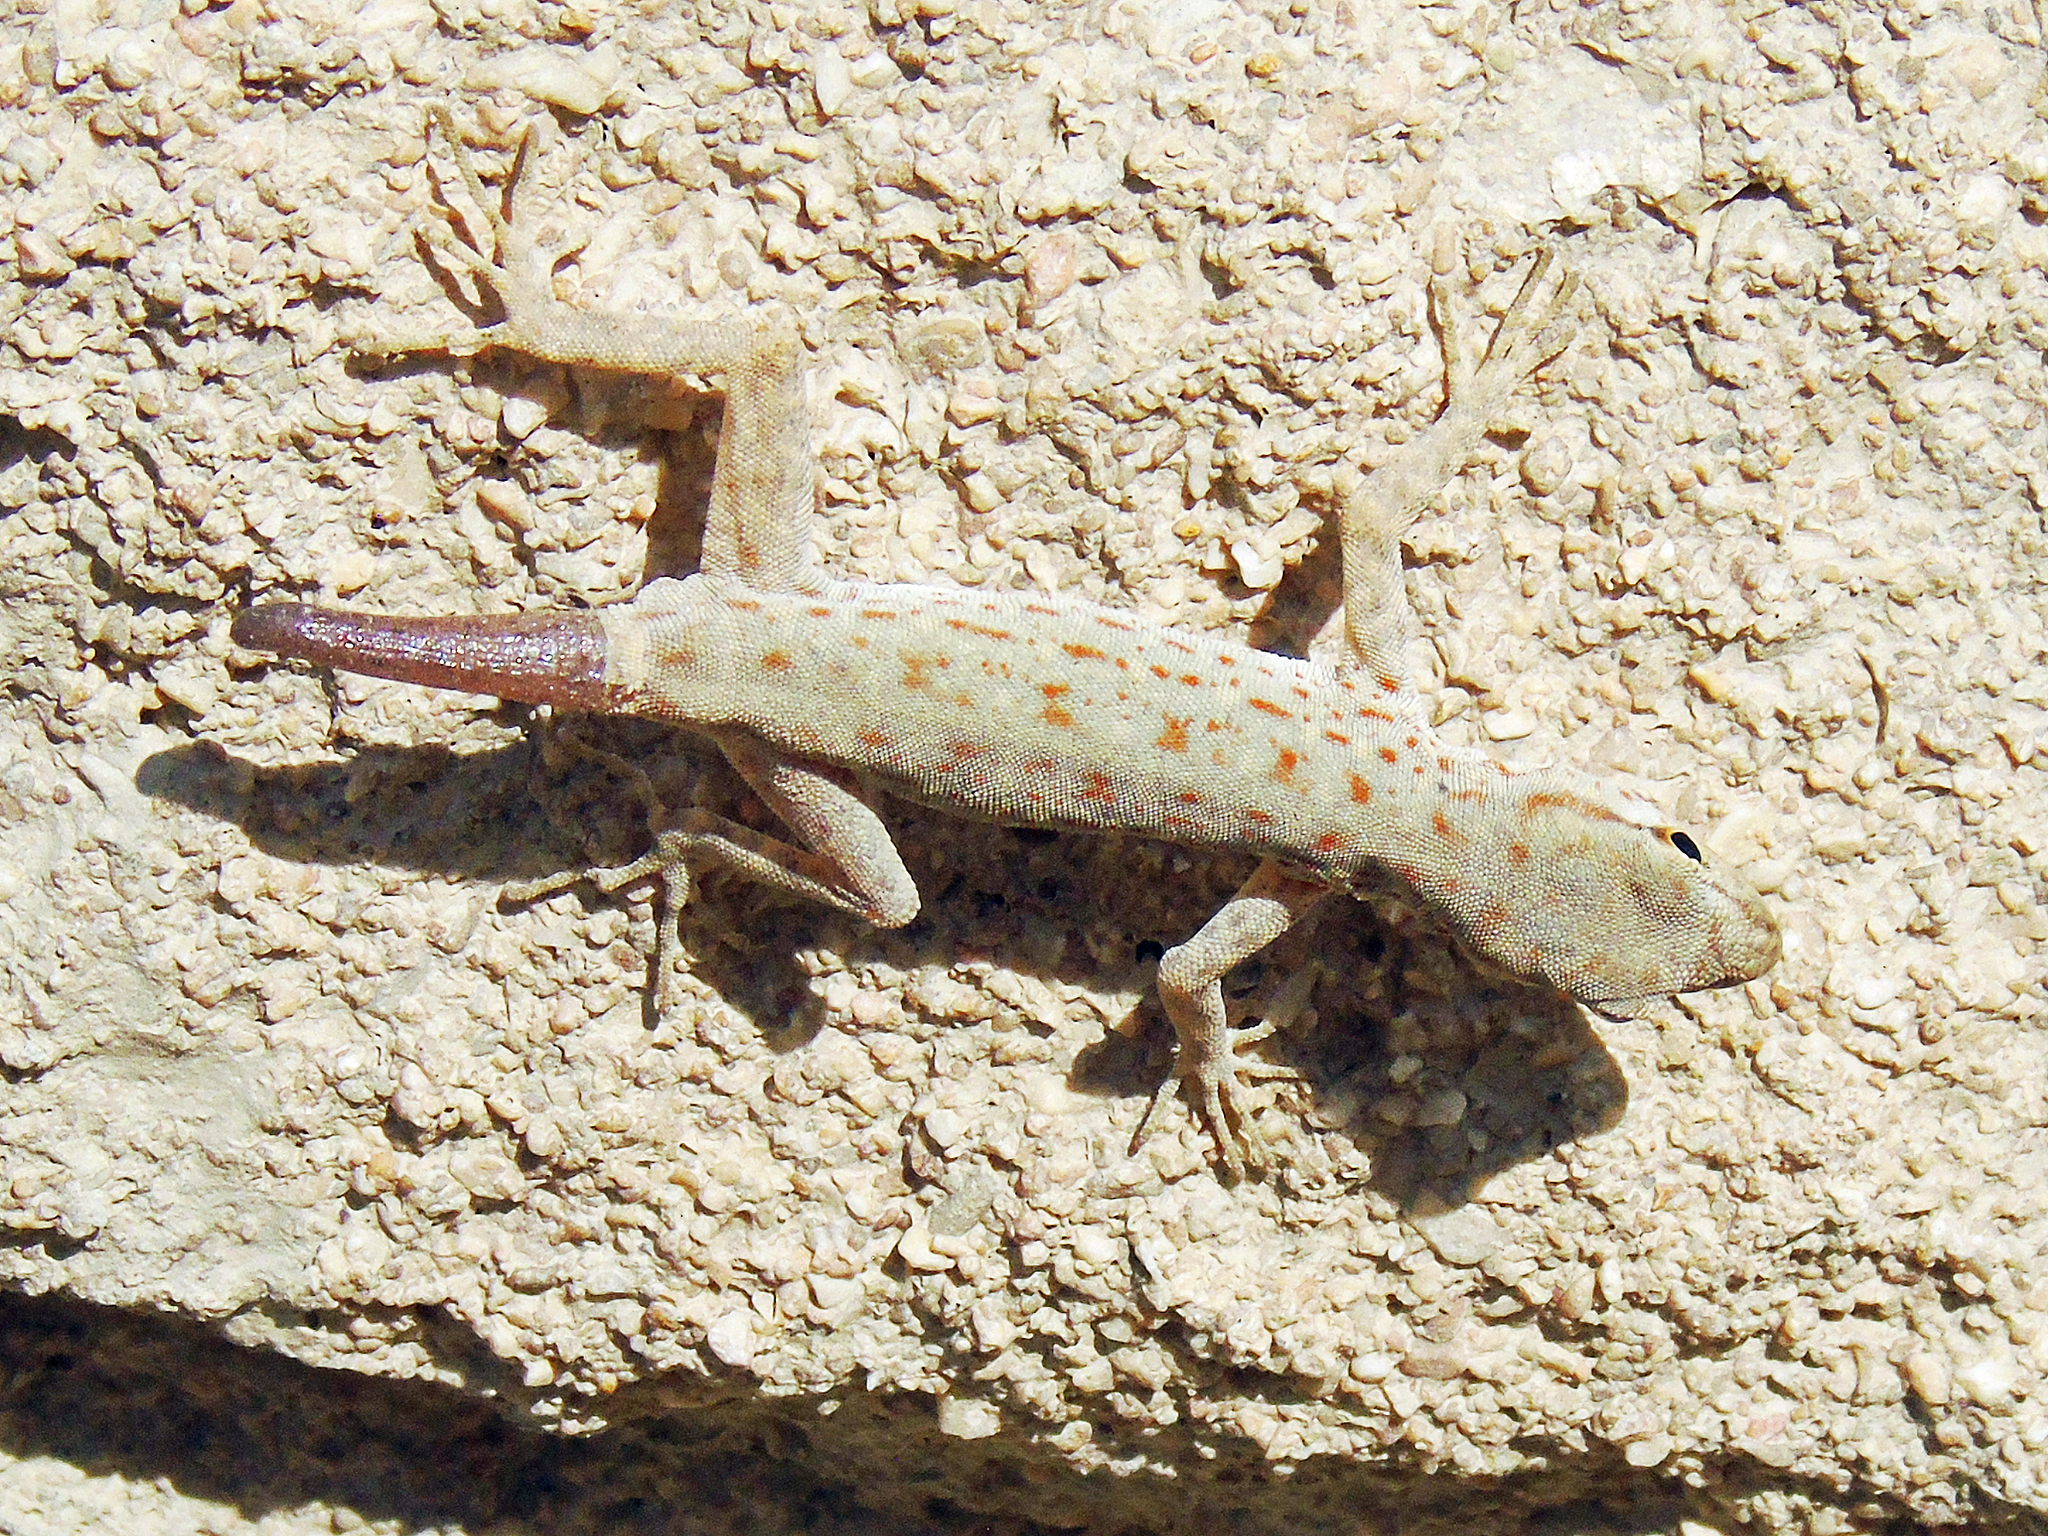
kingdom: Animalia
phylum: Chordata
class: Squamata
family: Sphaerodactylidae
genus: Pristurus
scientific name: Pristurus rupestris
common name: Blanford’s semaphore gecko
